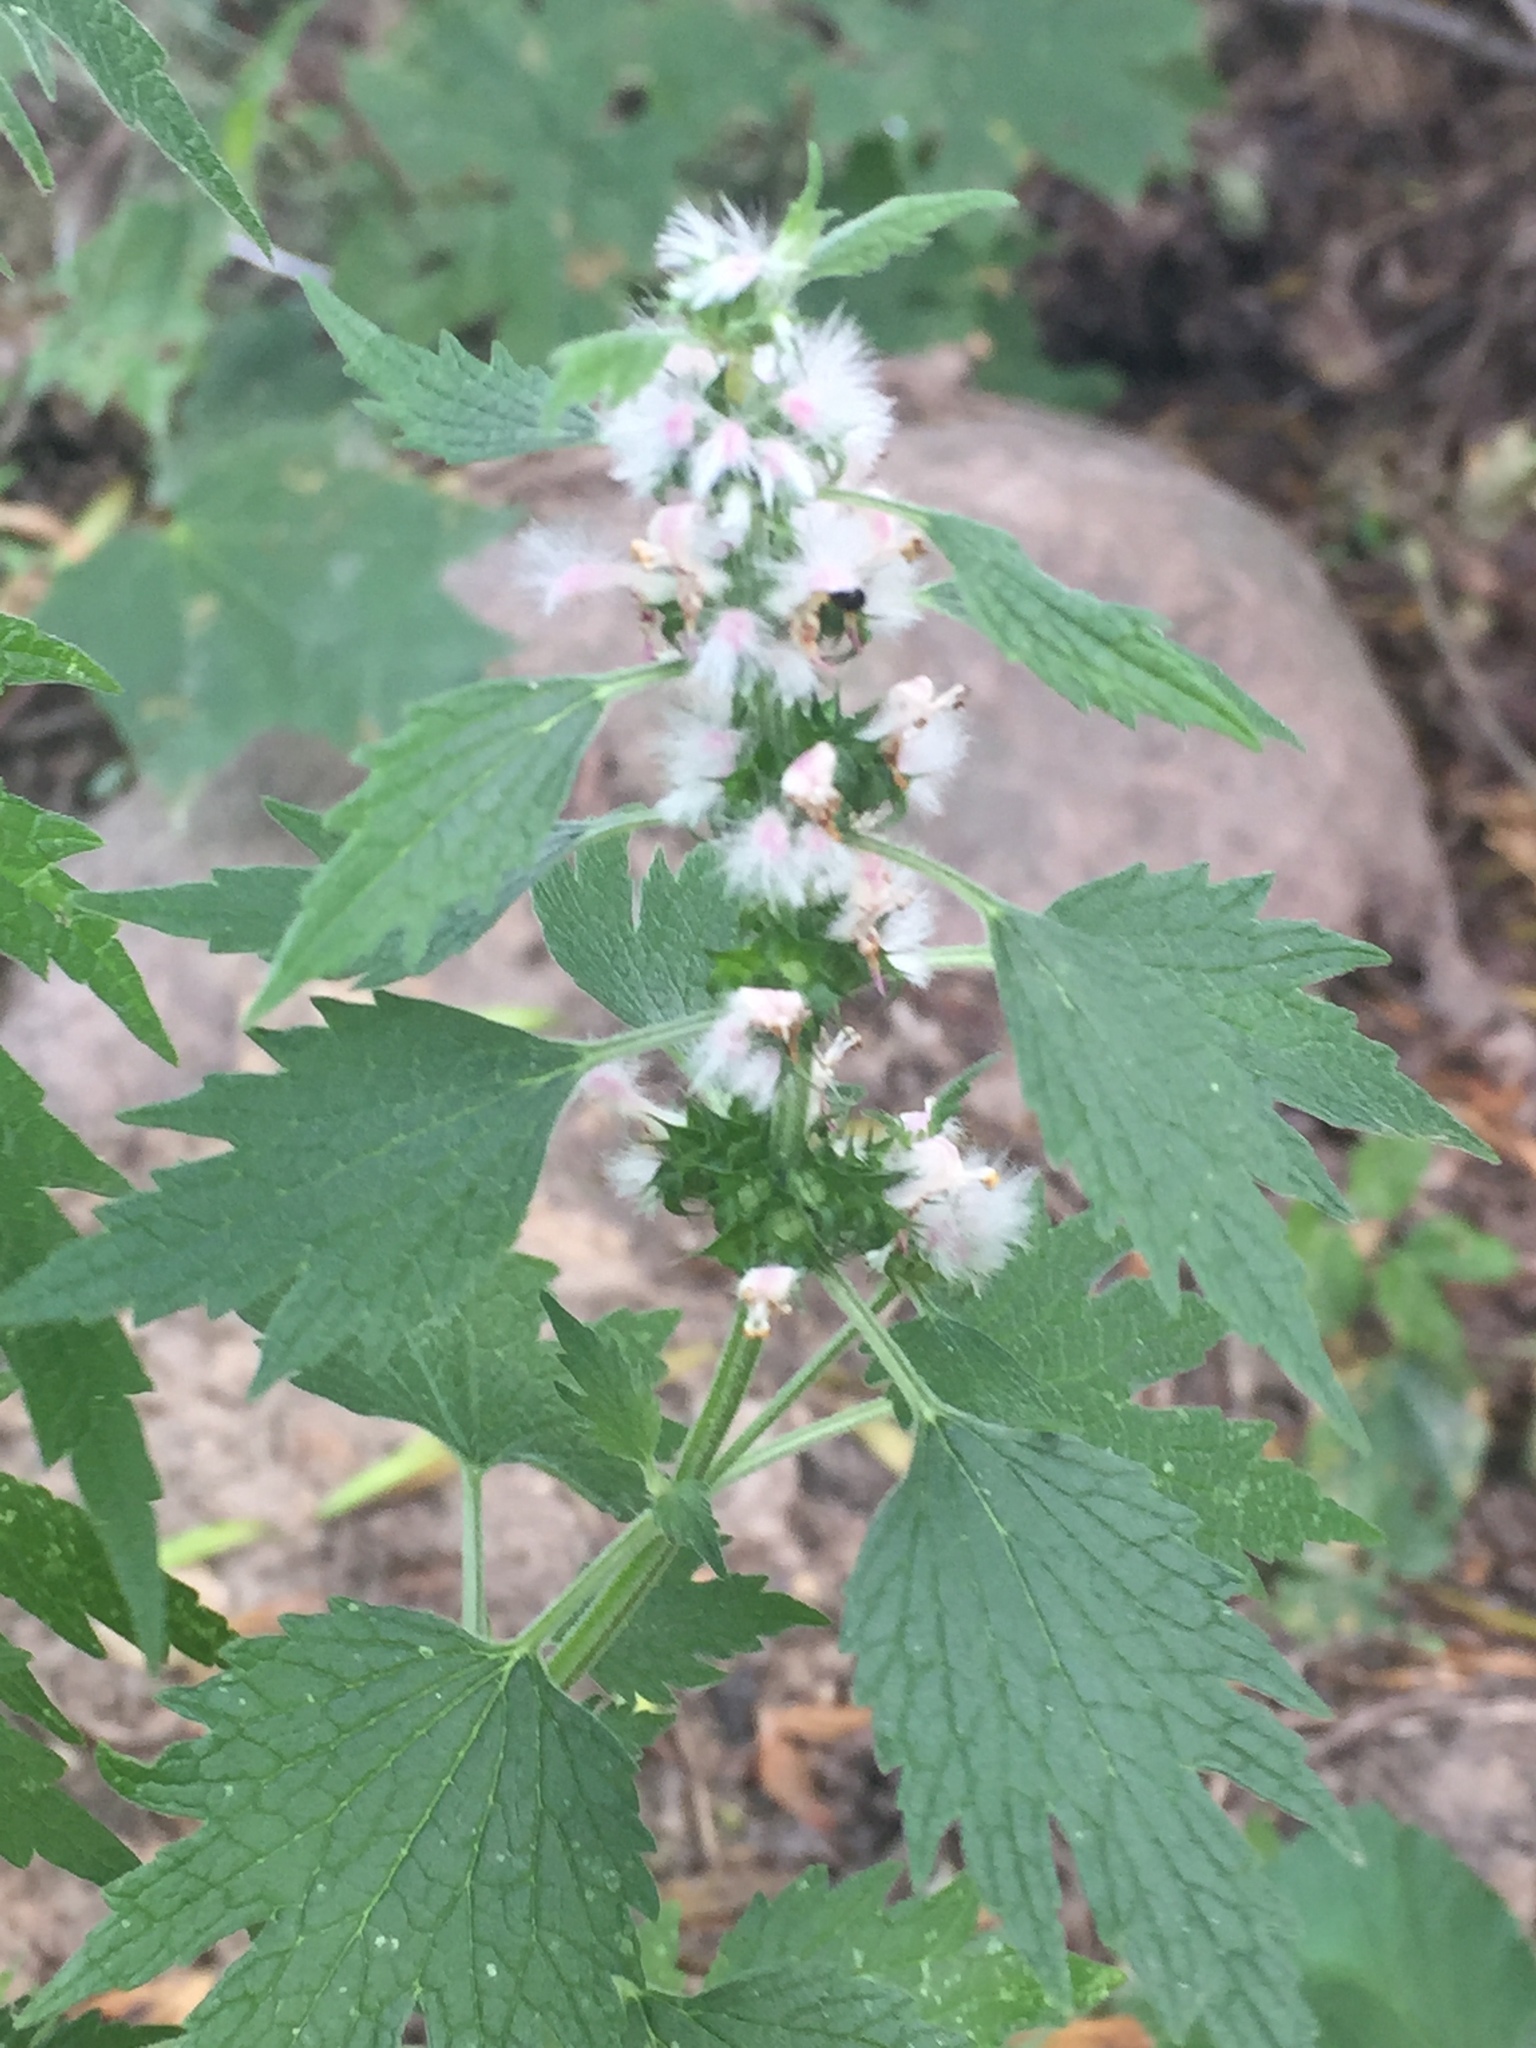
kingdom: Plantae
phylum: Tracheophyta
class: Magnoliopsida
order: Lamiales
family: Lamiaceae
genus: Leonurus
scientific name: Leonurus cardiaca
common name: Motherwort
